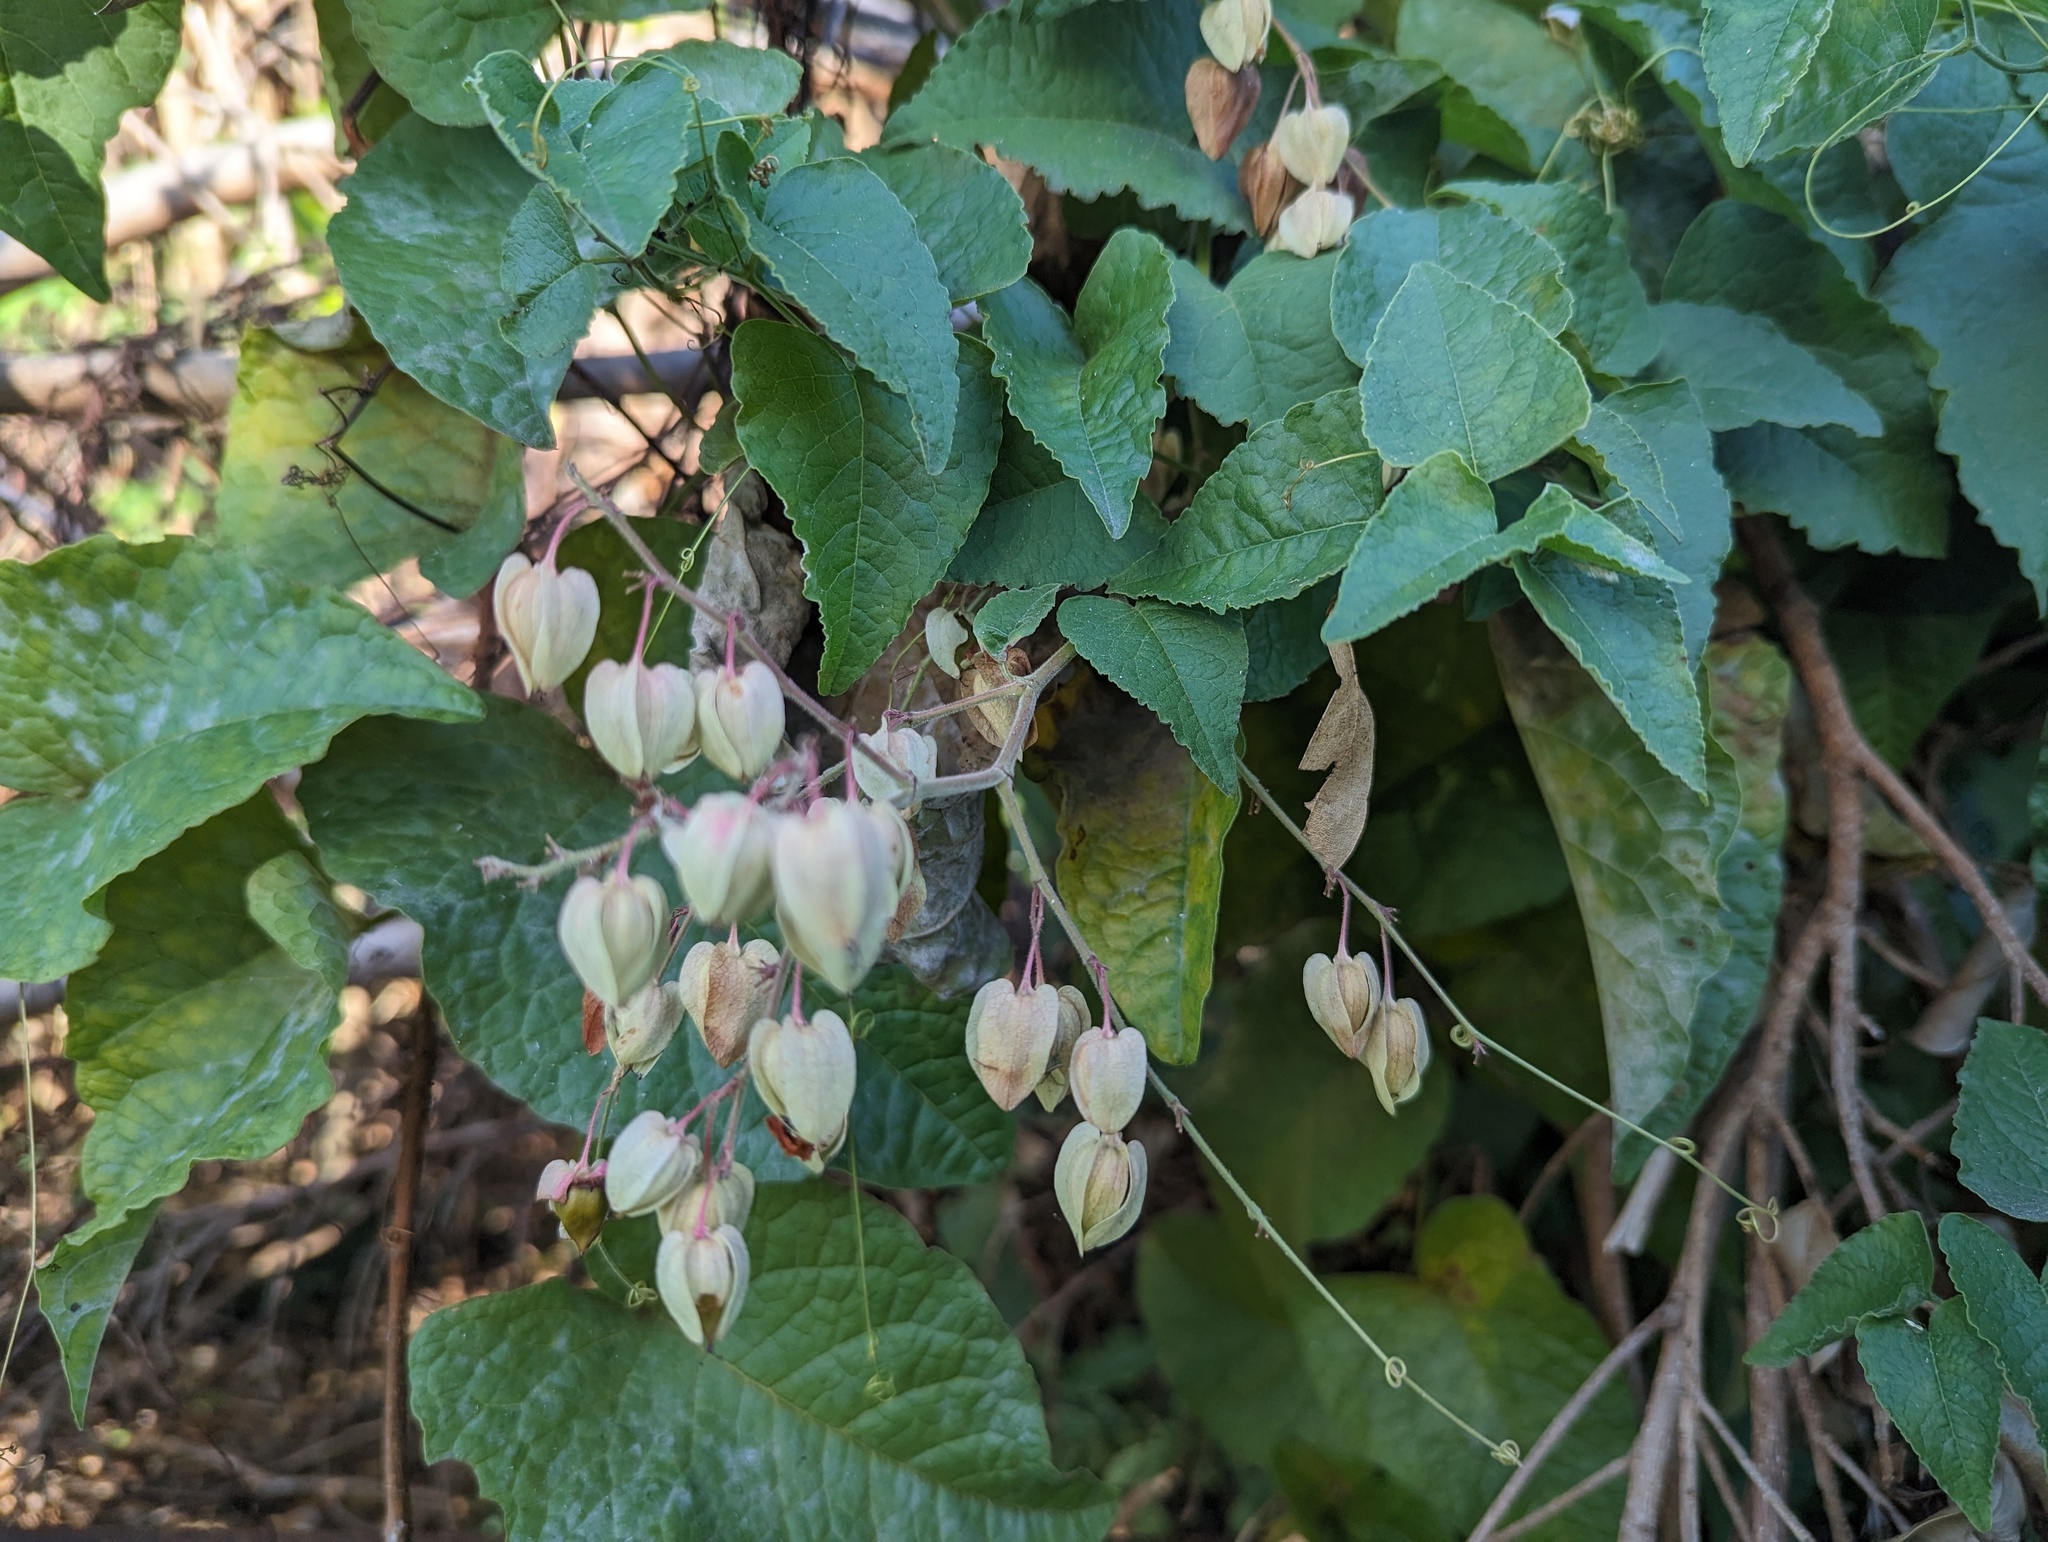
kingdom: Plantae
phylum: Tracheophyta
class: Magnoliopsida
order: Caryophyllales
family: Polygonaceae
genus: Antigonon
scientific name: Antigonon leptopus
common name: Coral vine
